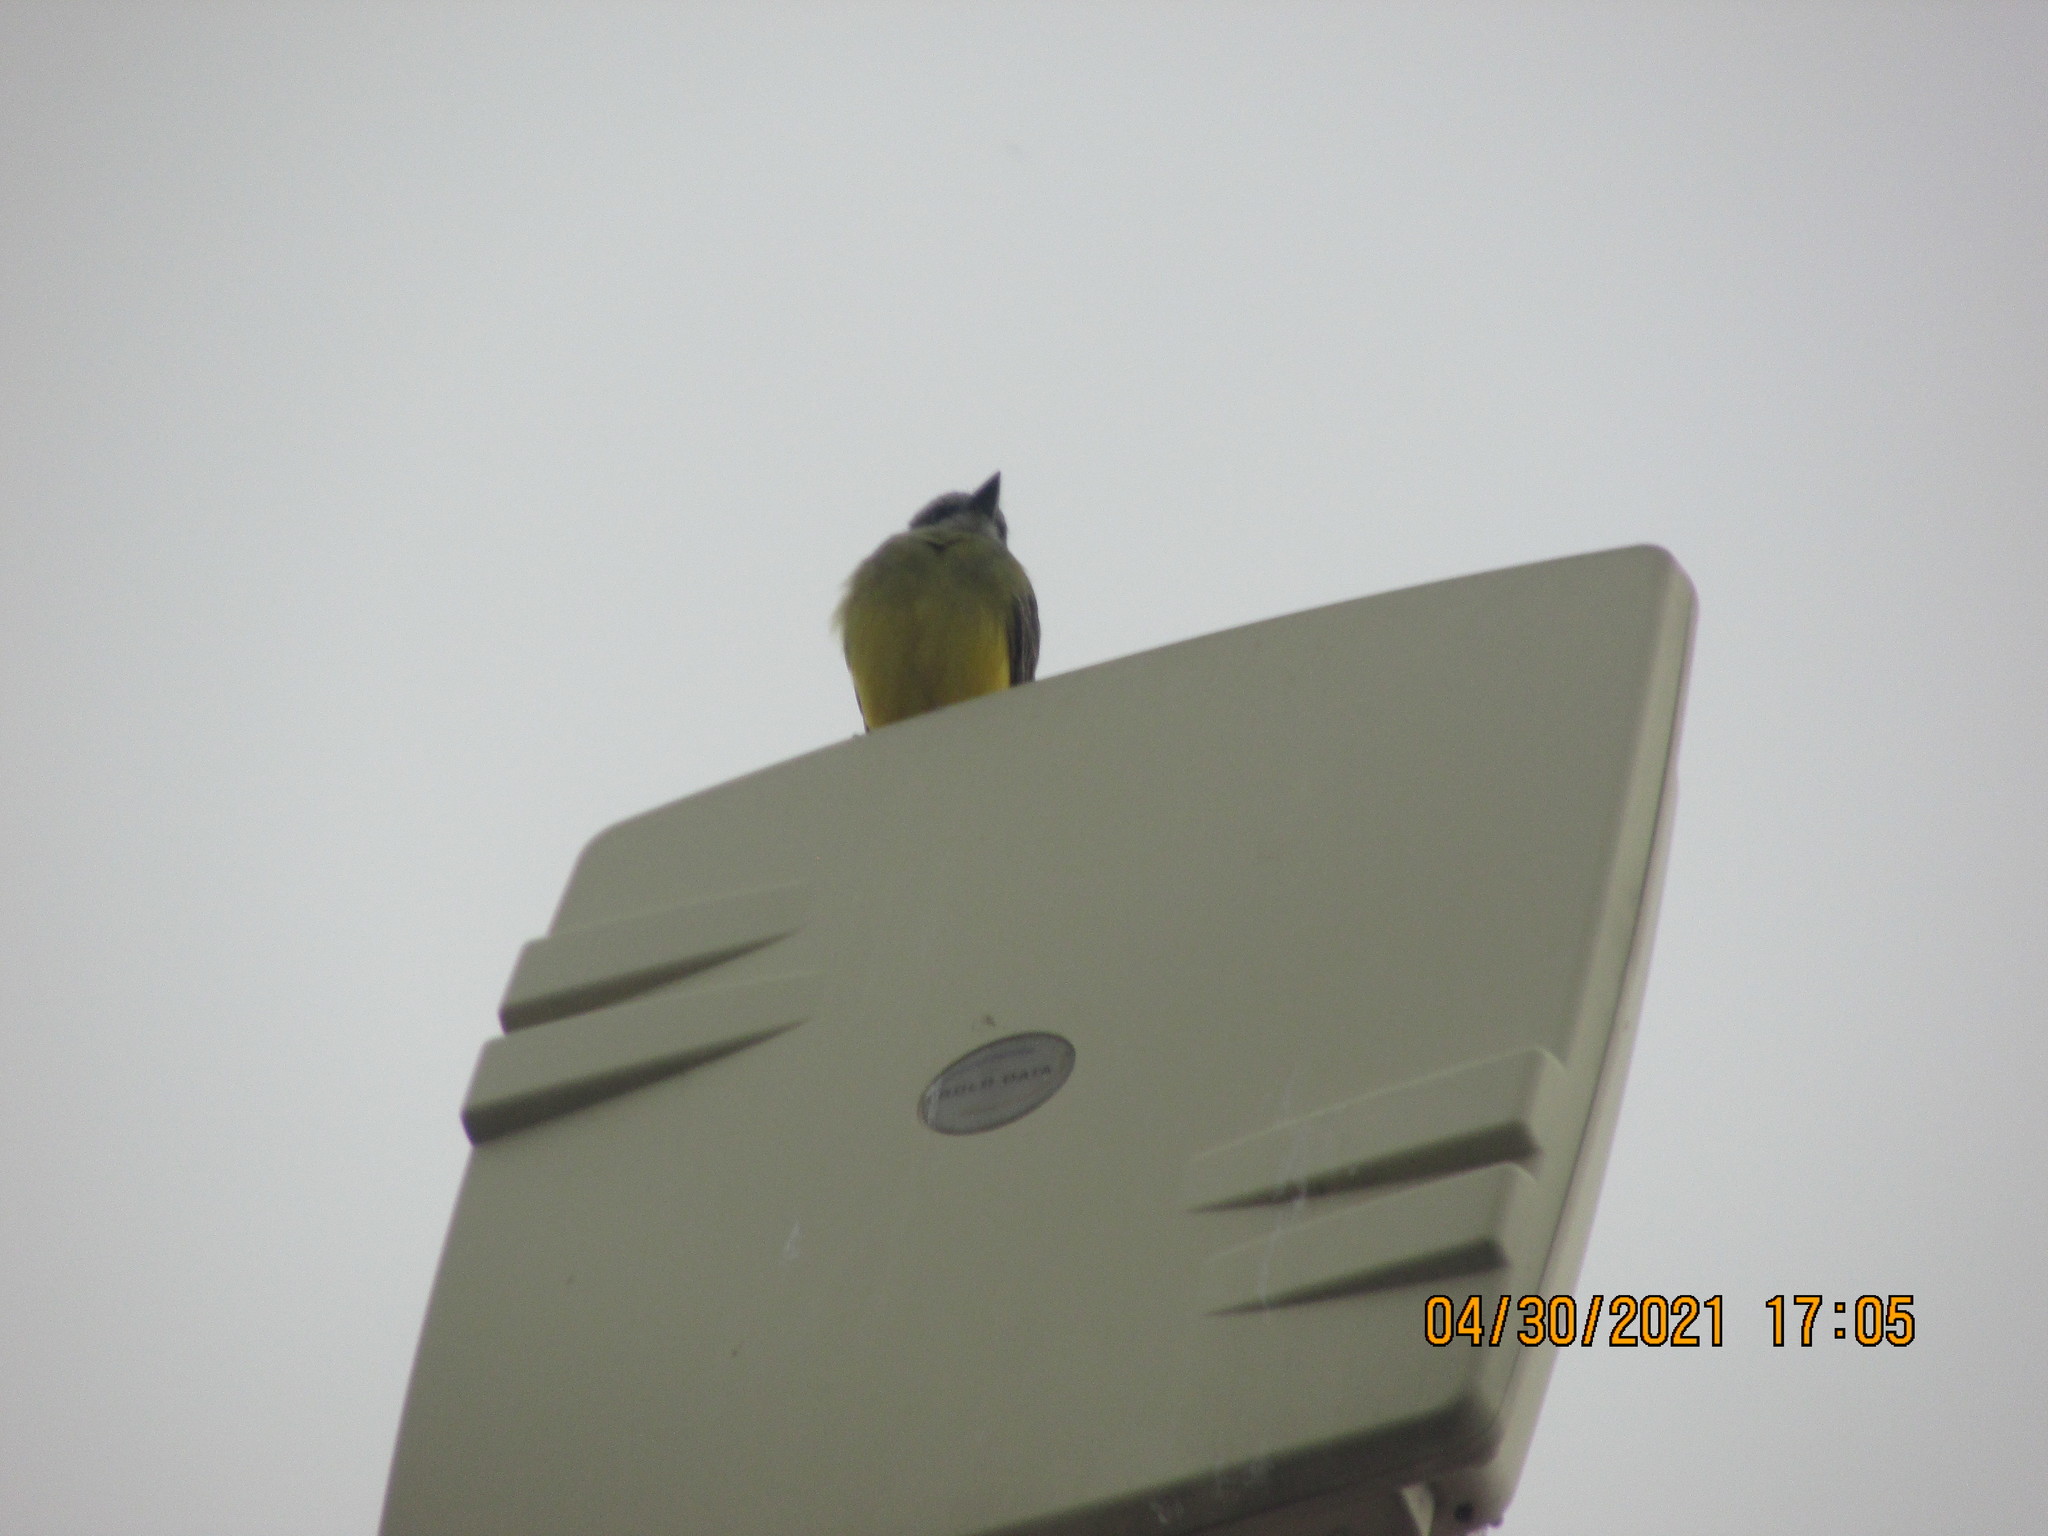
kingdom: Animalia
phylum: Chordata
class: Aves
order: Passeriformes
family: Tyrannidae
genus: Tyrannus
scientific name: Tyrannus melancholicus
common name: Tropical kingbird
